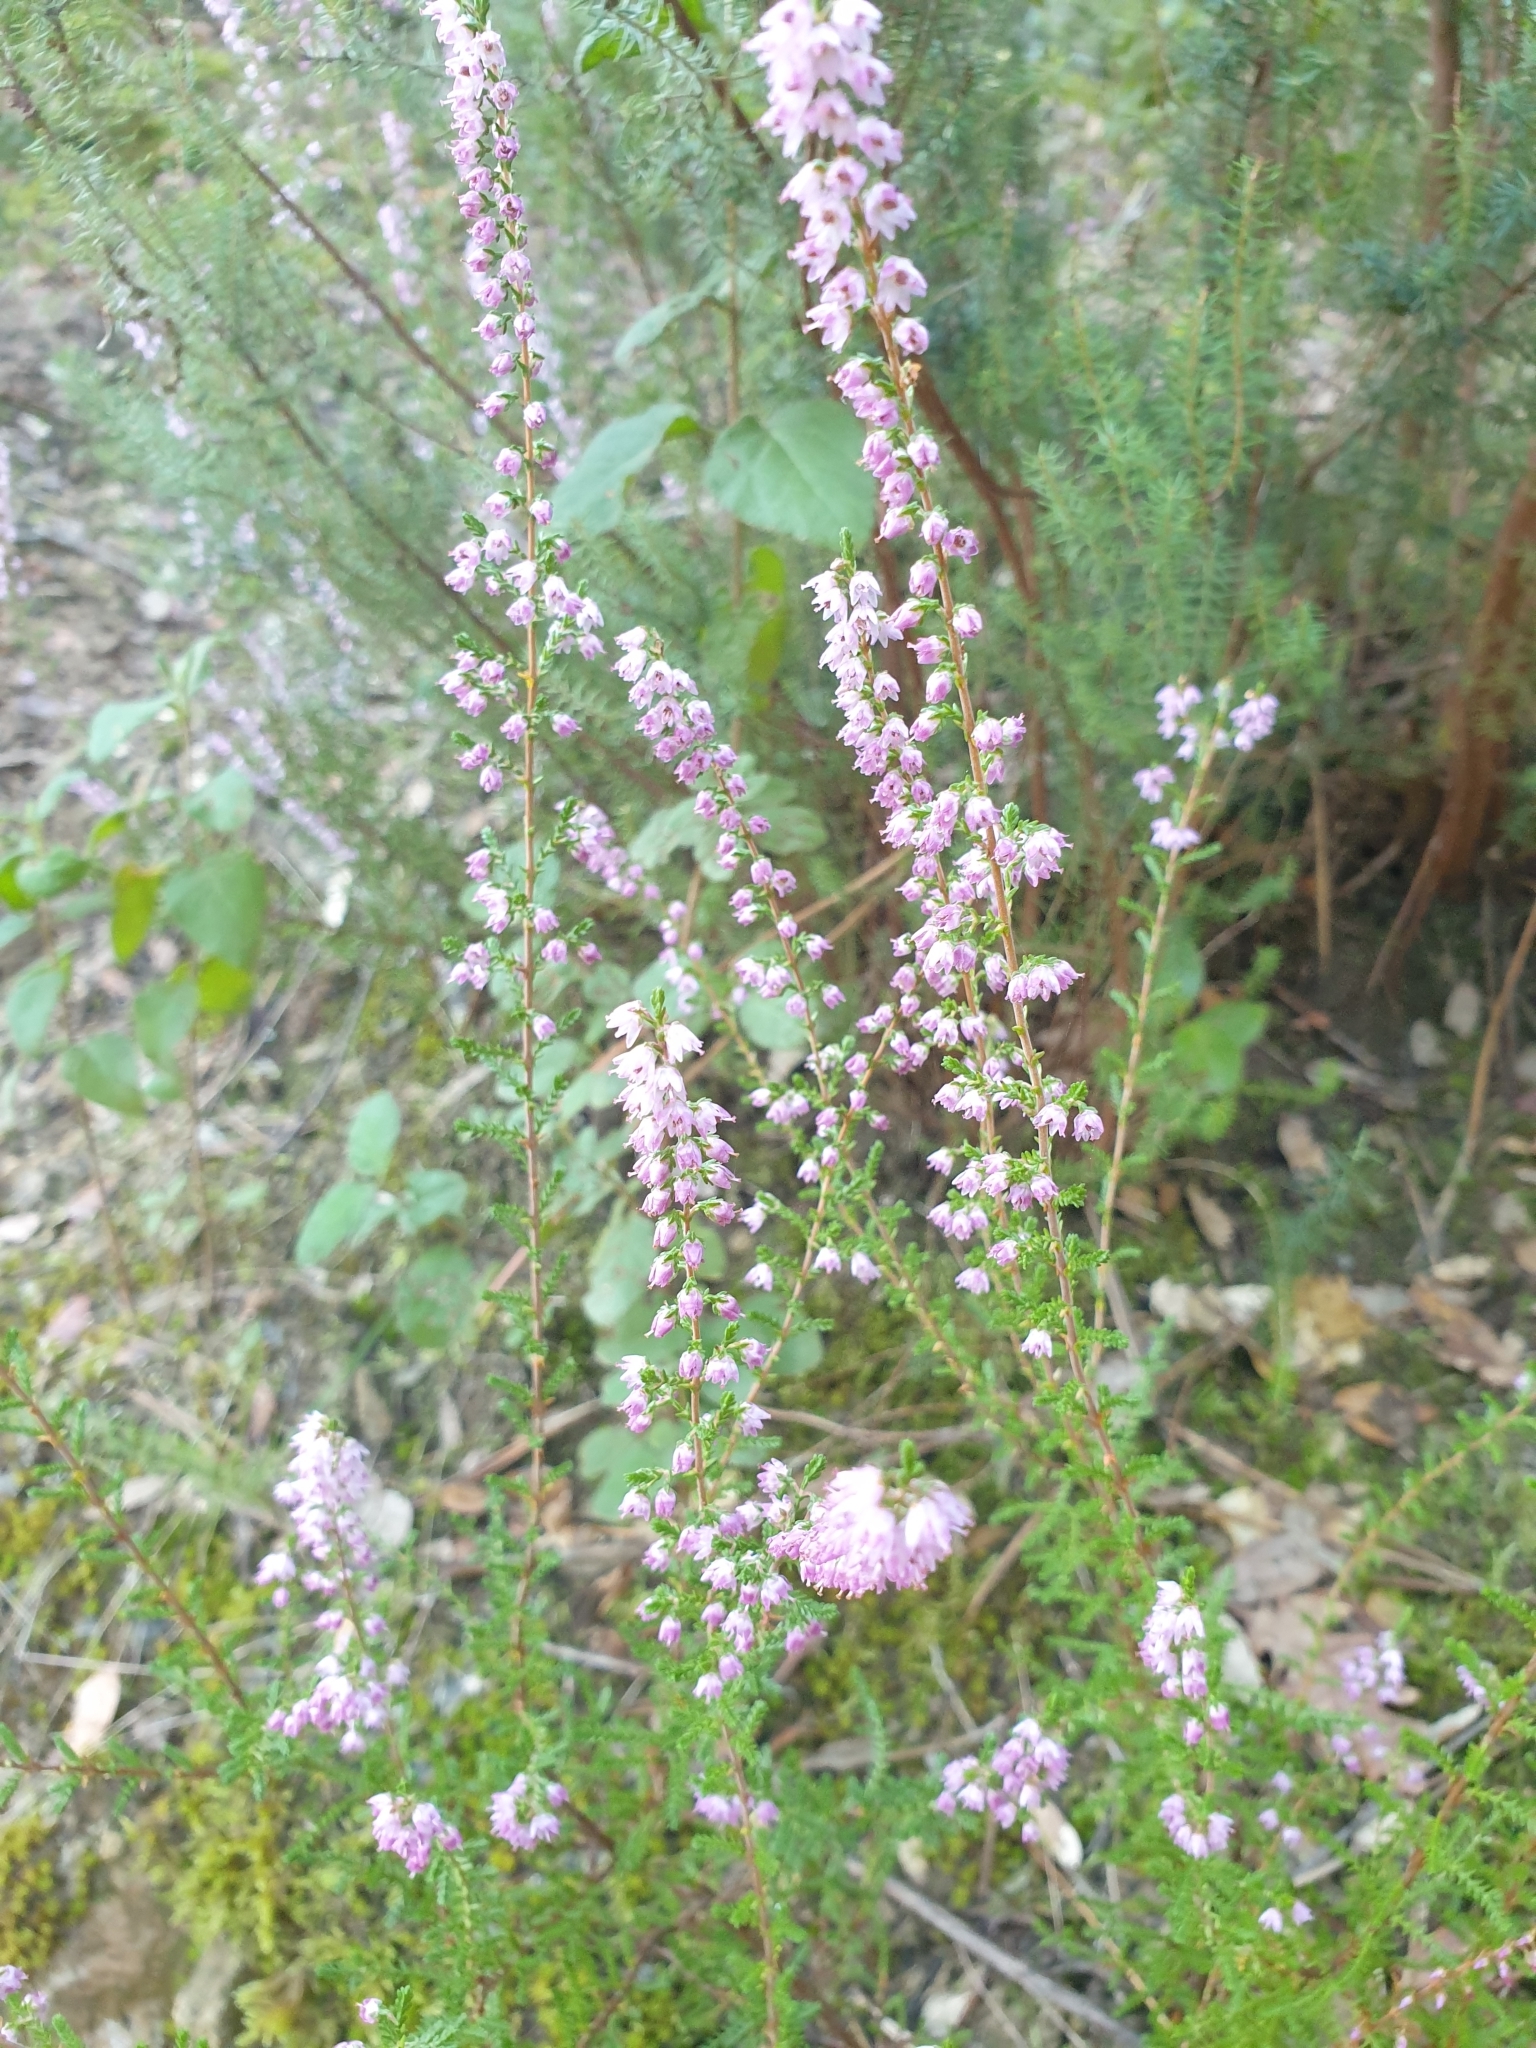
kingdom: Plantae
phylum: Tracheophyta
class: Magnoliopsida
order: Ericales
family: Ericaceae
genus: Calluna
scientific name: Calluna vulgaris
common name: Heather
